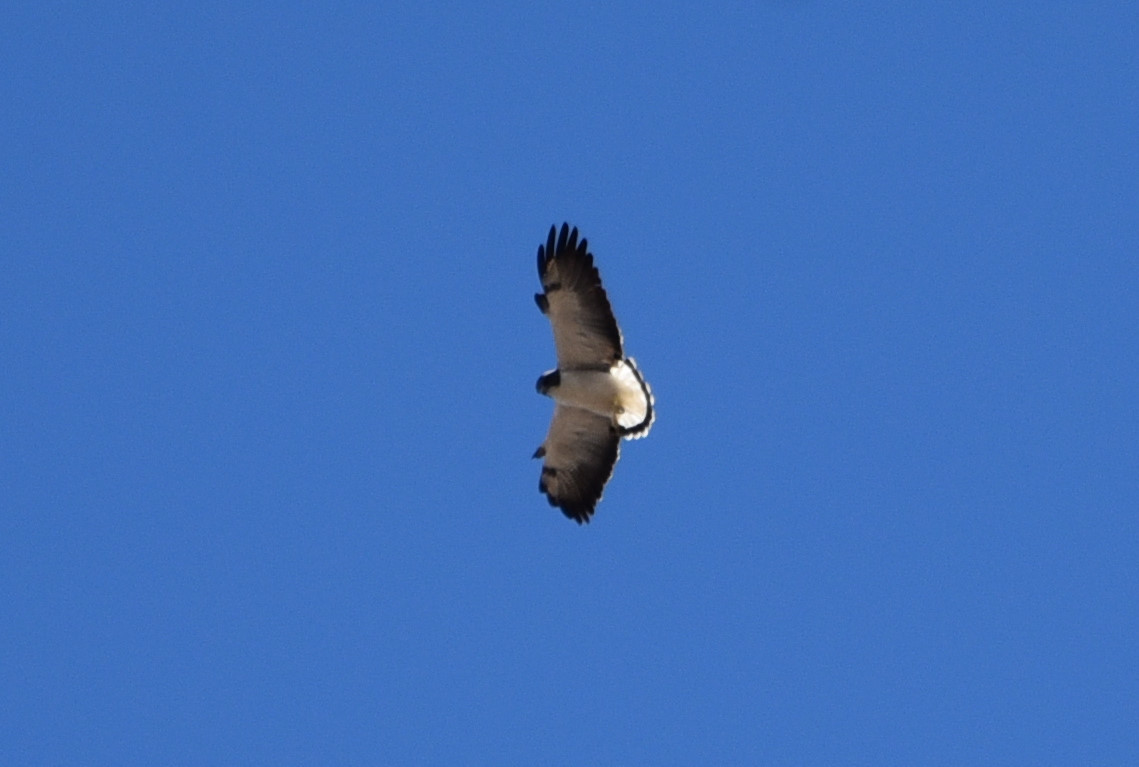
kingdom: Animalia
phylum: Chordata
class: Aves
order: Accipitriformes
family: Accipitridae
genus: Buteo
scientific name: Buteo albicaudatus
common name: White-tailed hawk
